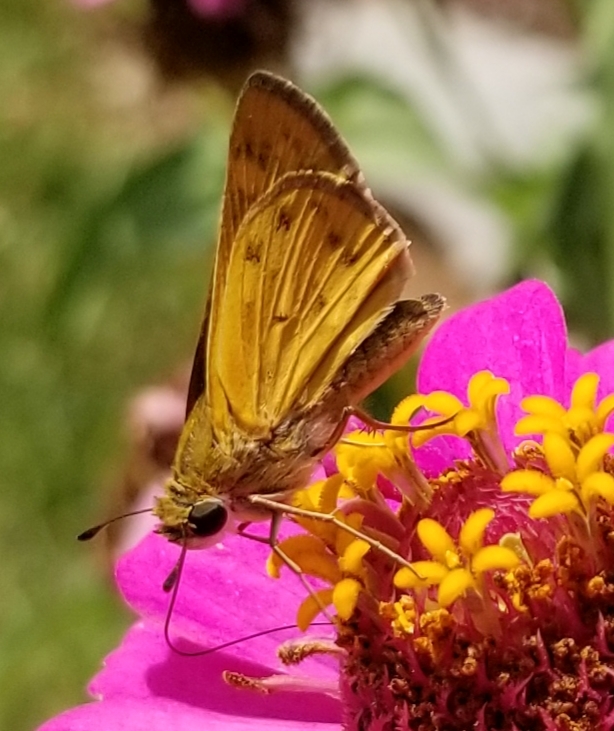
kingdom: Animalia
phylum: Arthropoda
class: Insecta
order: Lepidoptera
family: Hesperiidae
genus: Hylephila
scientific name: Hylephila phyleus
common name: Fiery skipper
